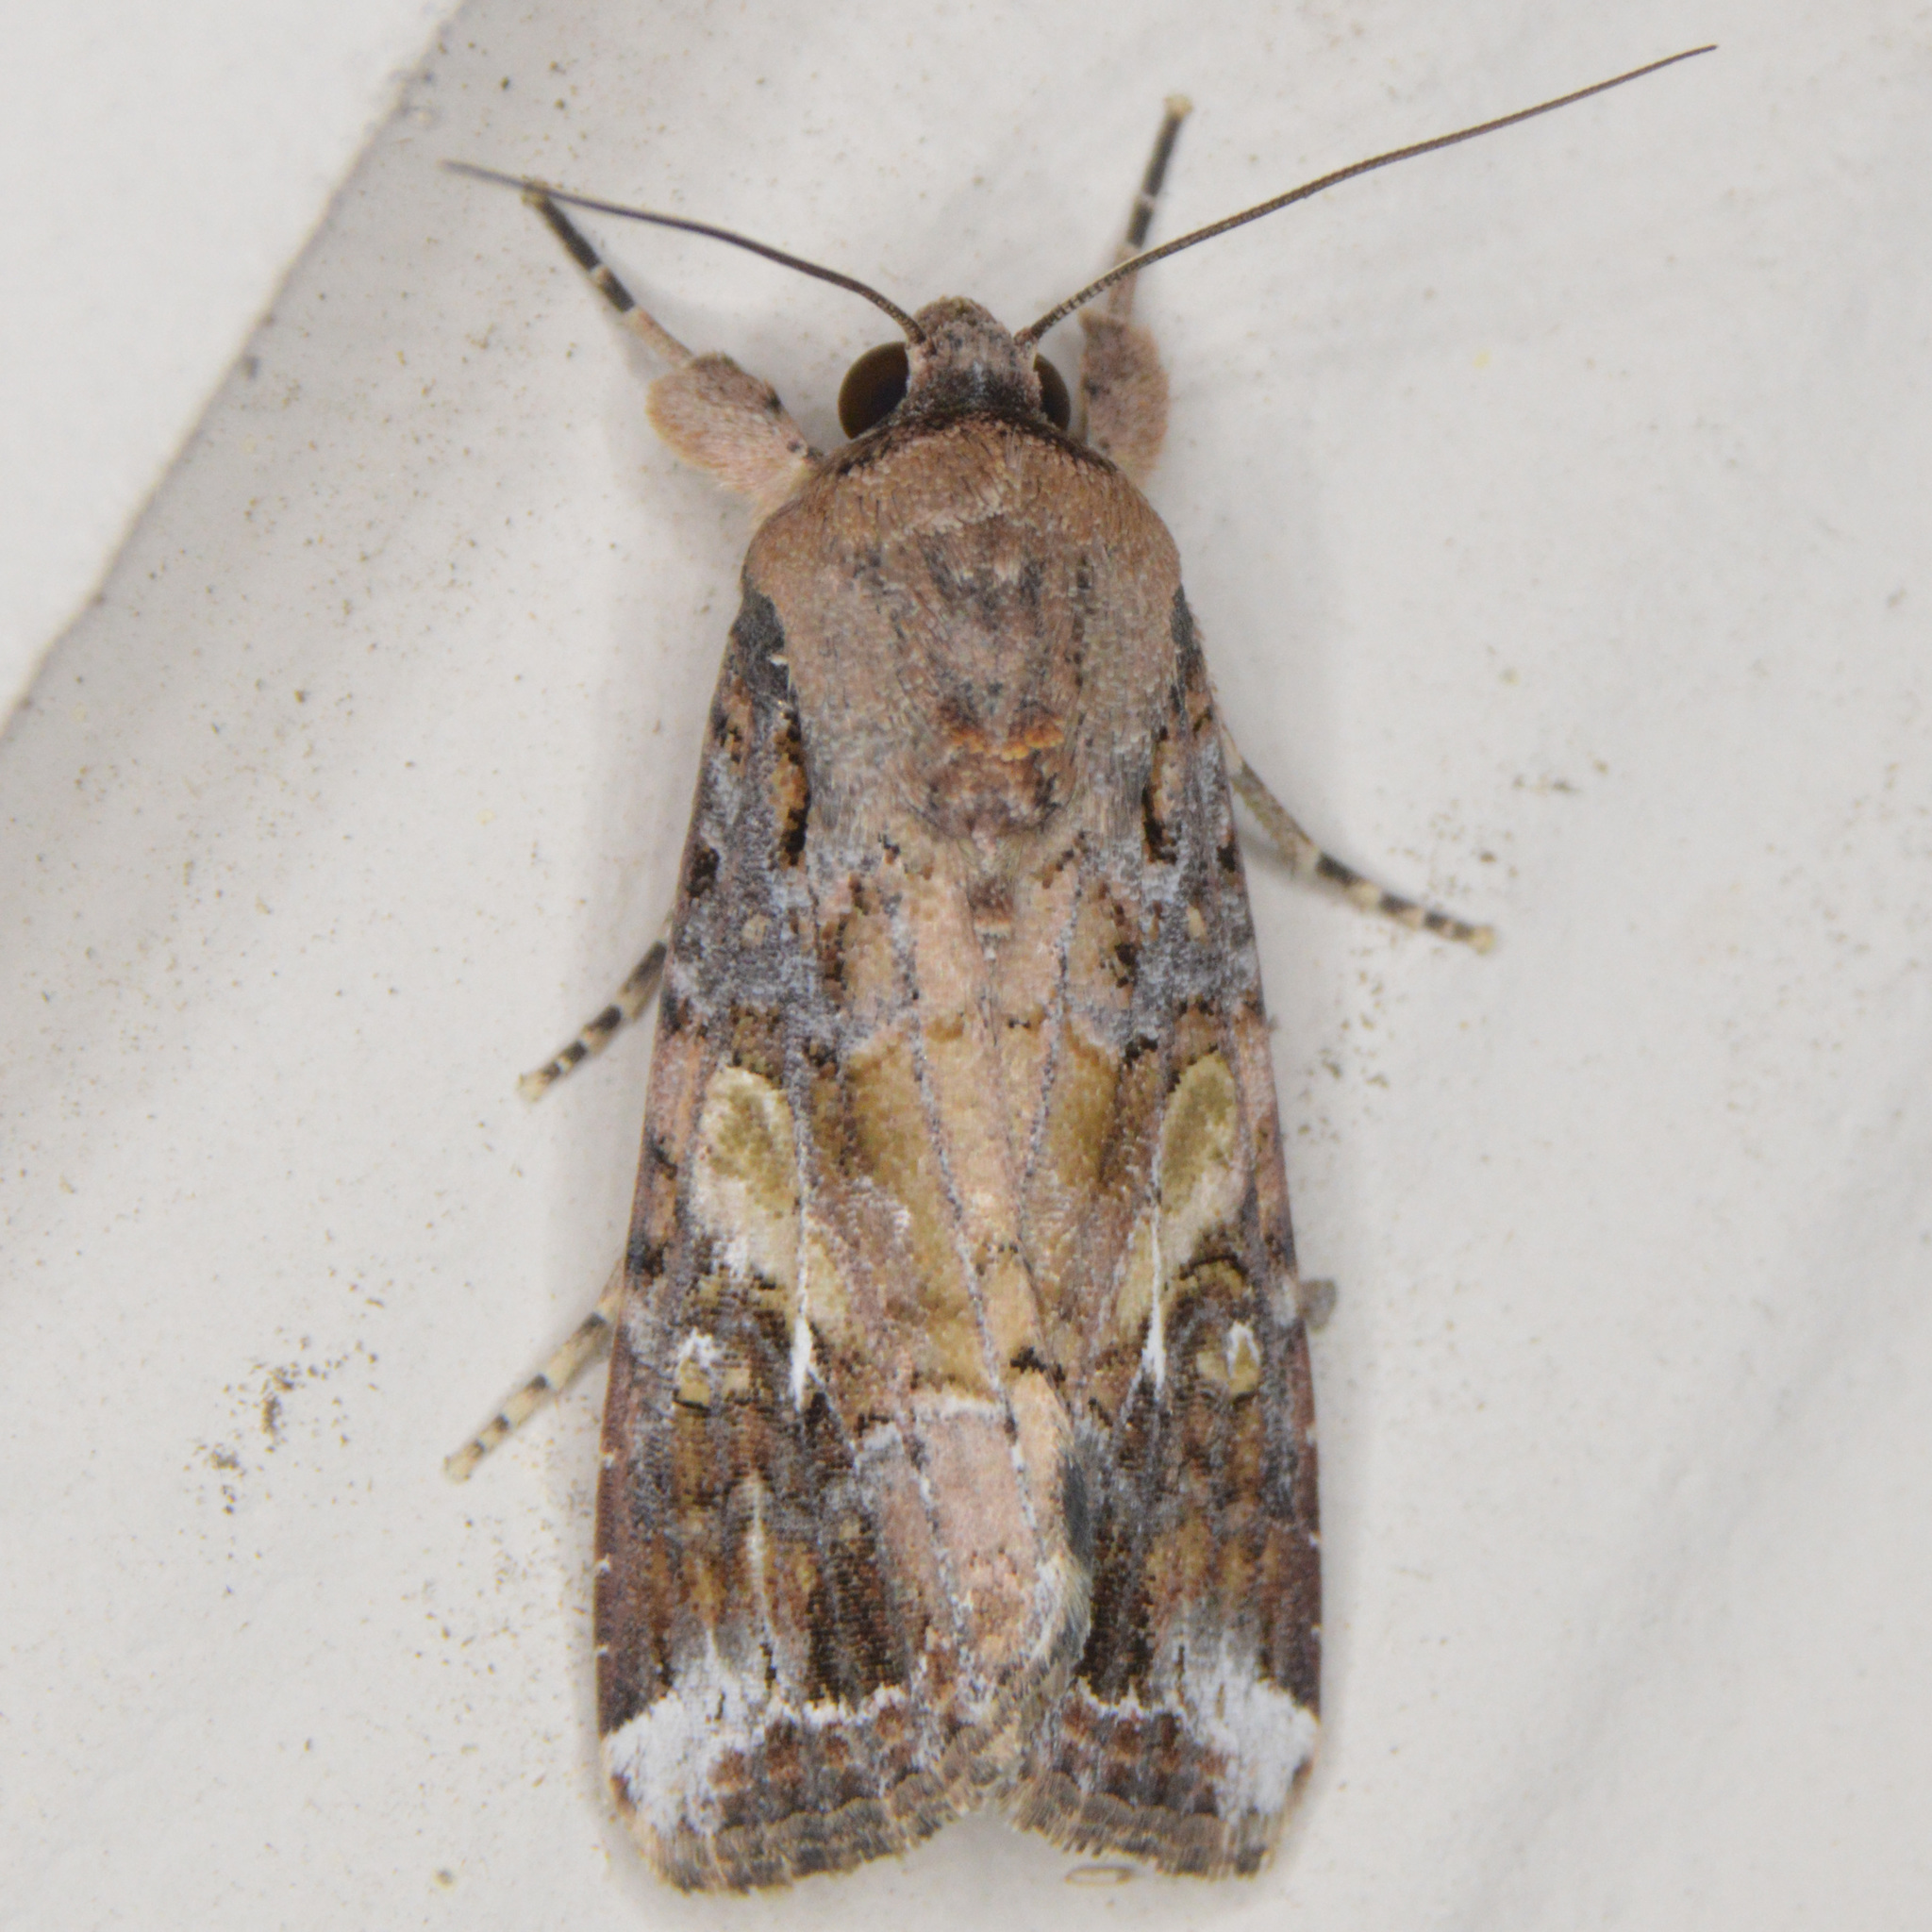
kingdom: Animalia
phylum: Arthropoda
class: Insecta
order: Lepidoptera
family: Noctuidae
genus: Spodoptera
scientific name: Spodoptera frugiperda
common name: Fall armyworm
